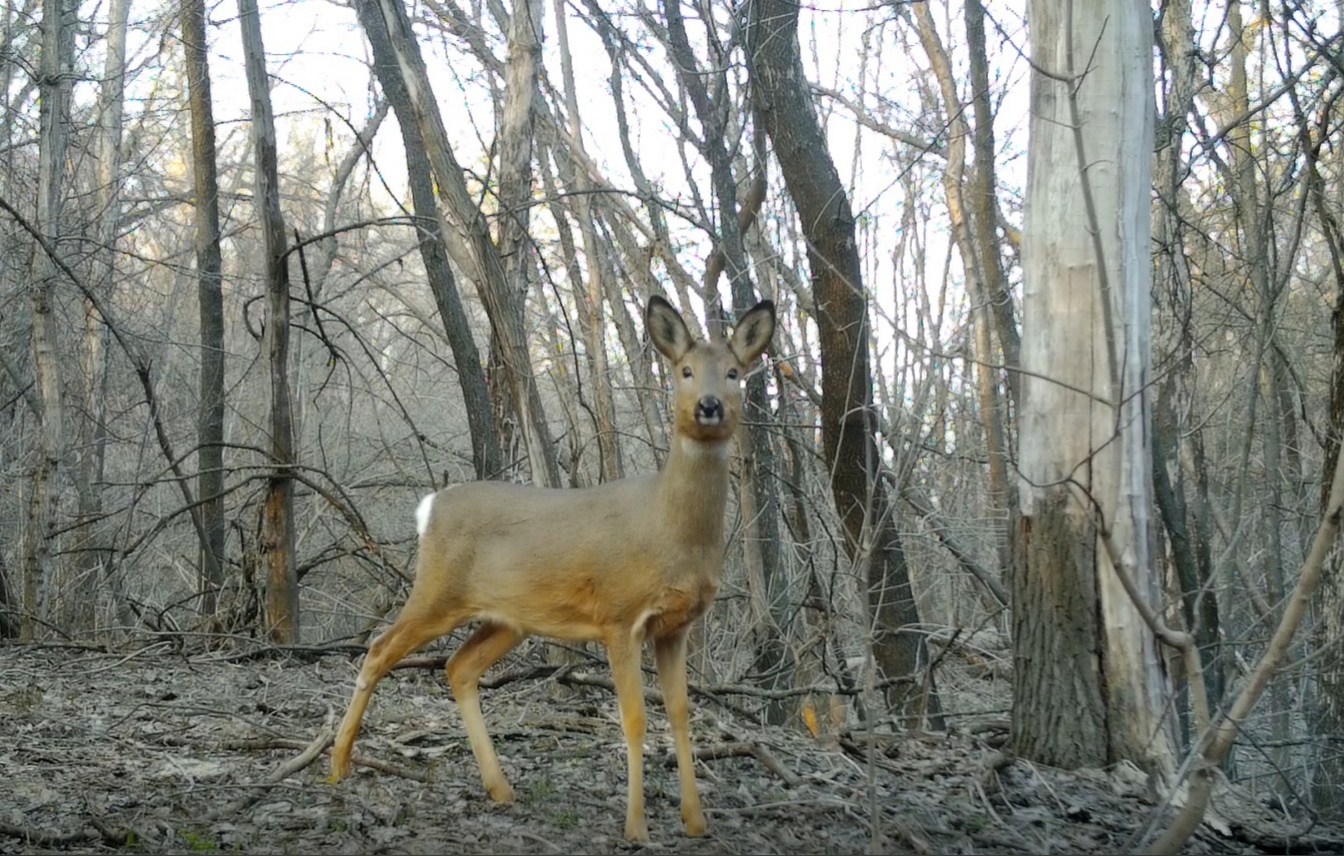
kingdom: Animalia
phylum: Chordata
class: Mammalia
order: Artiodactyla
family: Cervidae
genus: Capreolus
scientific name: Capreolus pygargus
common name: Siberian roe
